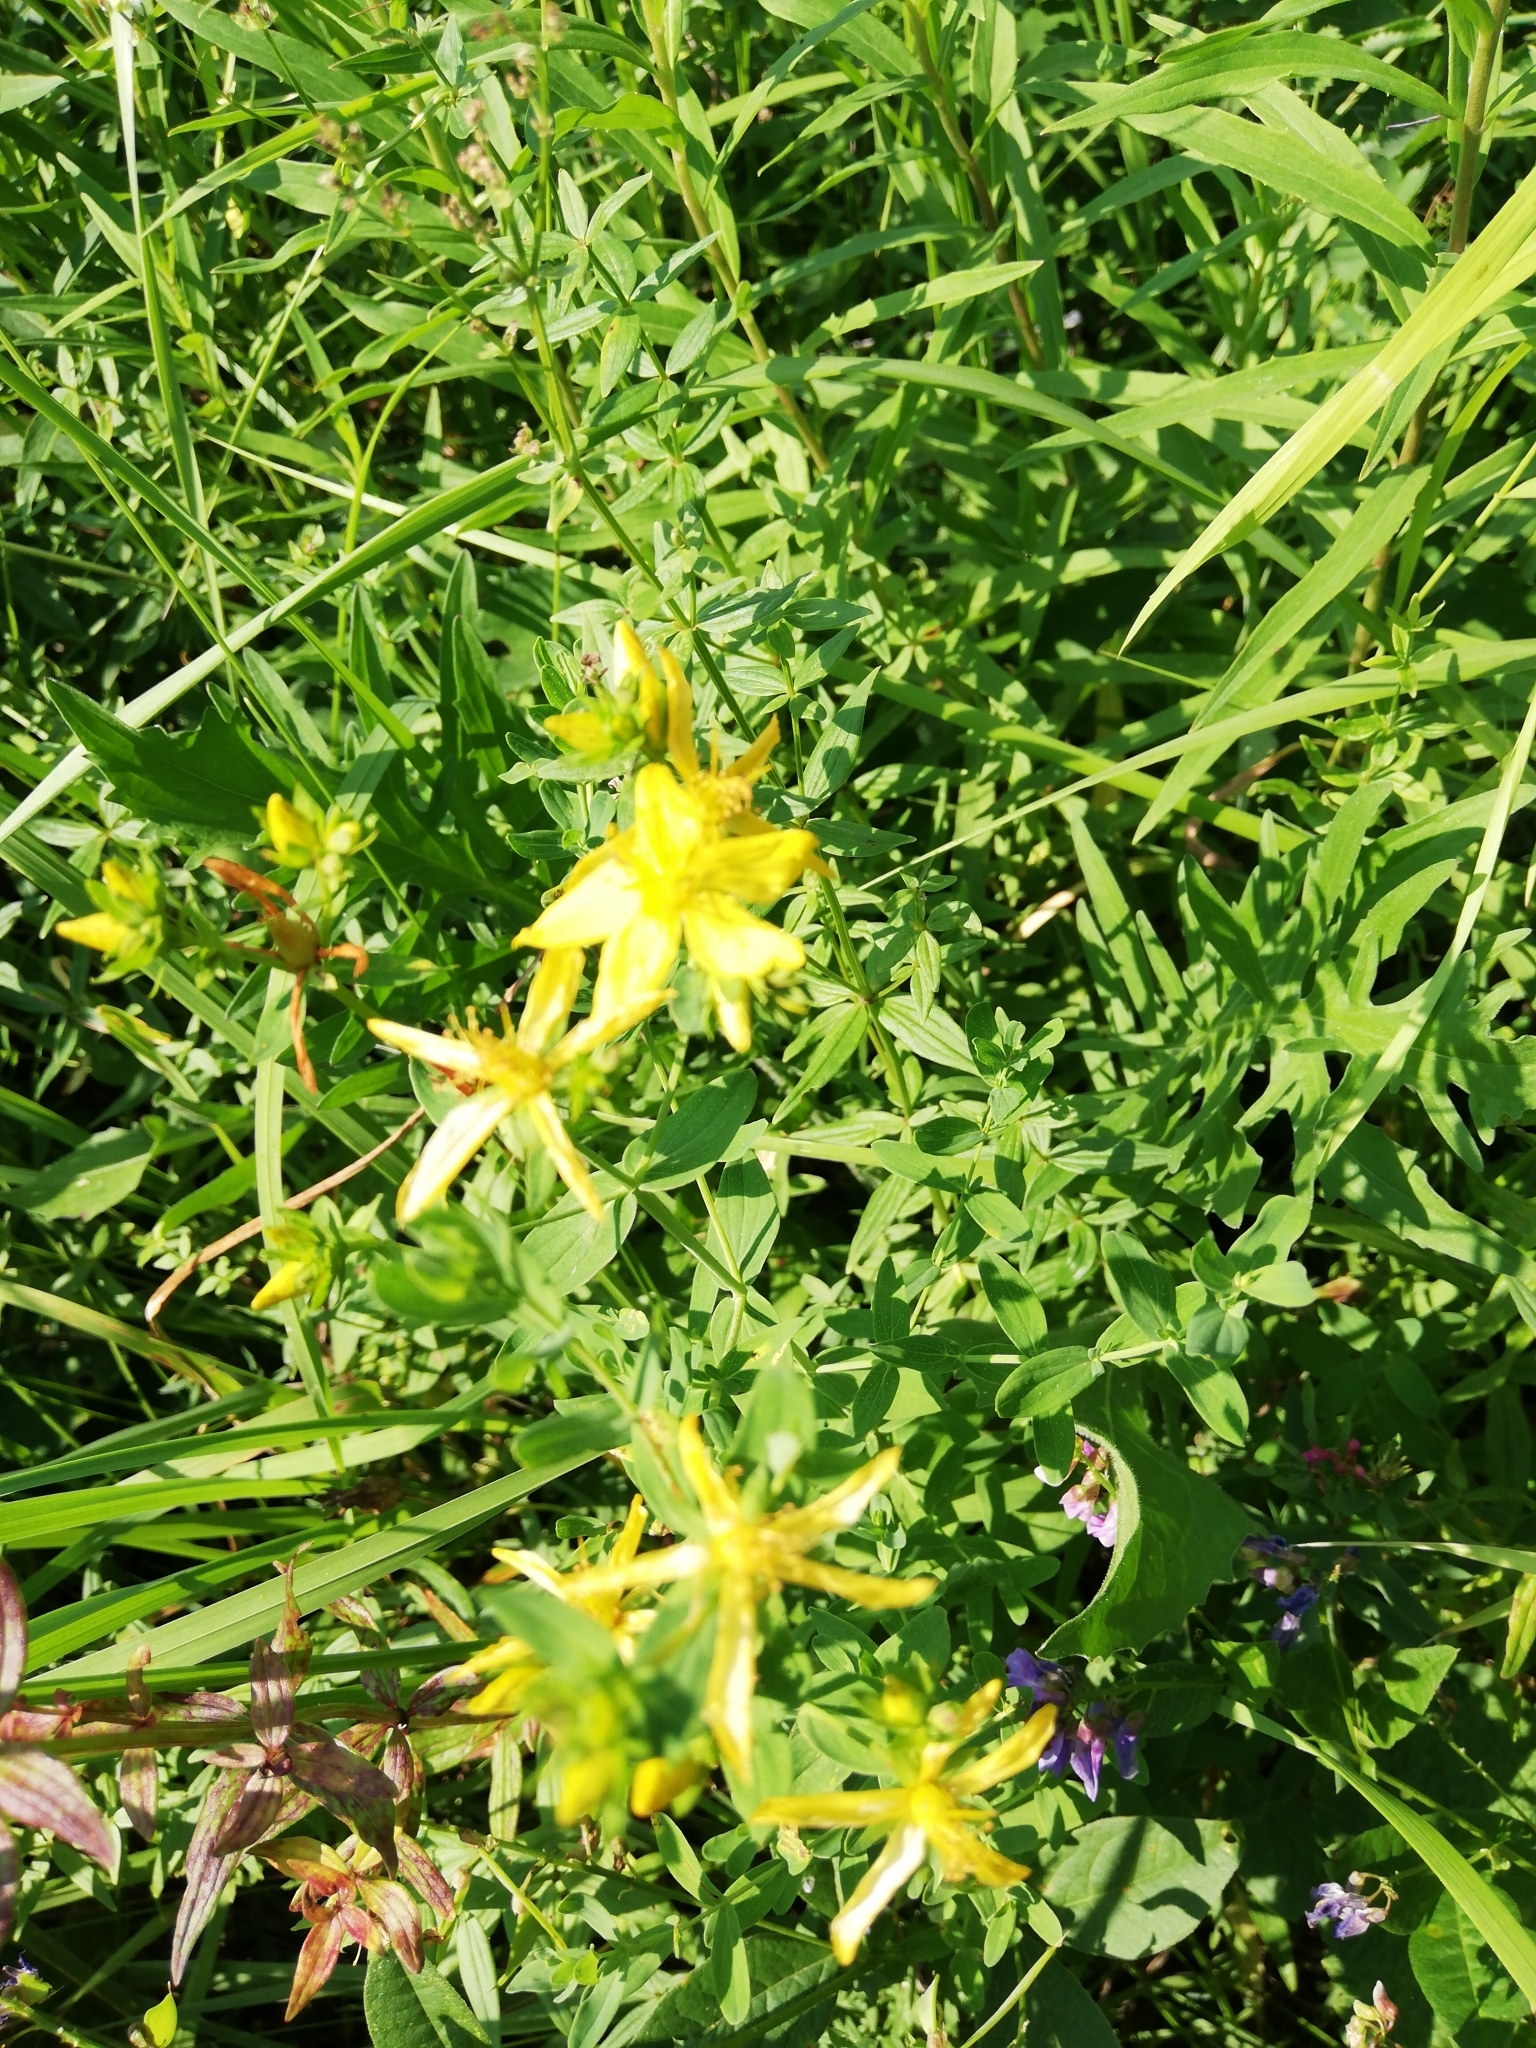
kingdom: Plantae
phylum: Tracheophyta
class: Magnoliopsida
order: Malpighiales
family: Hypericaceae
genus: Hypericum
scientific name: Hypericum perforatum
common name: Common st. johnswort
